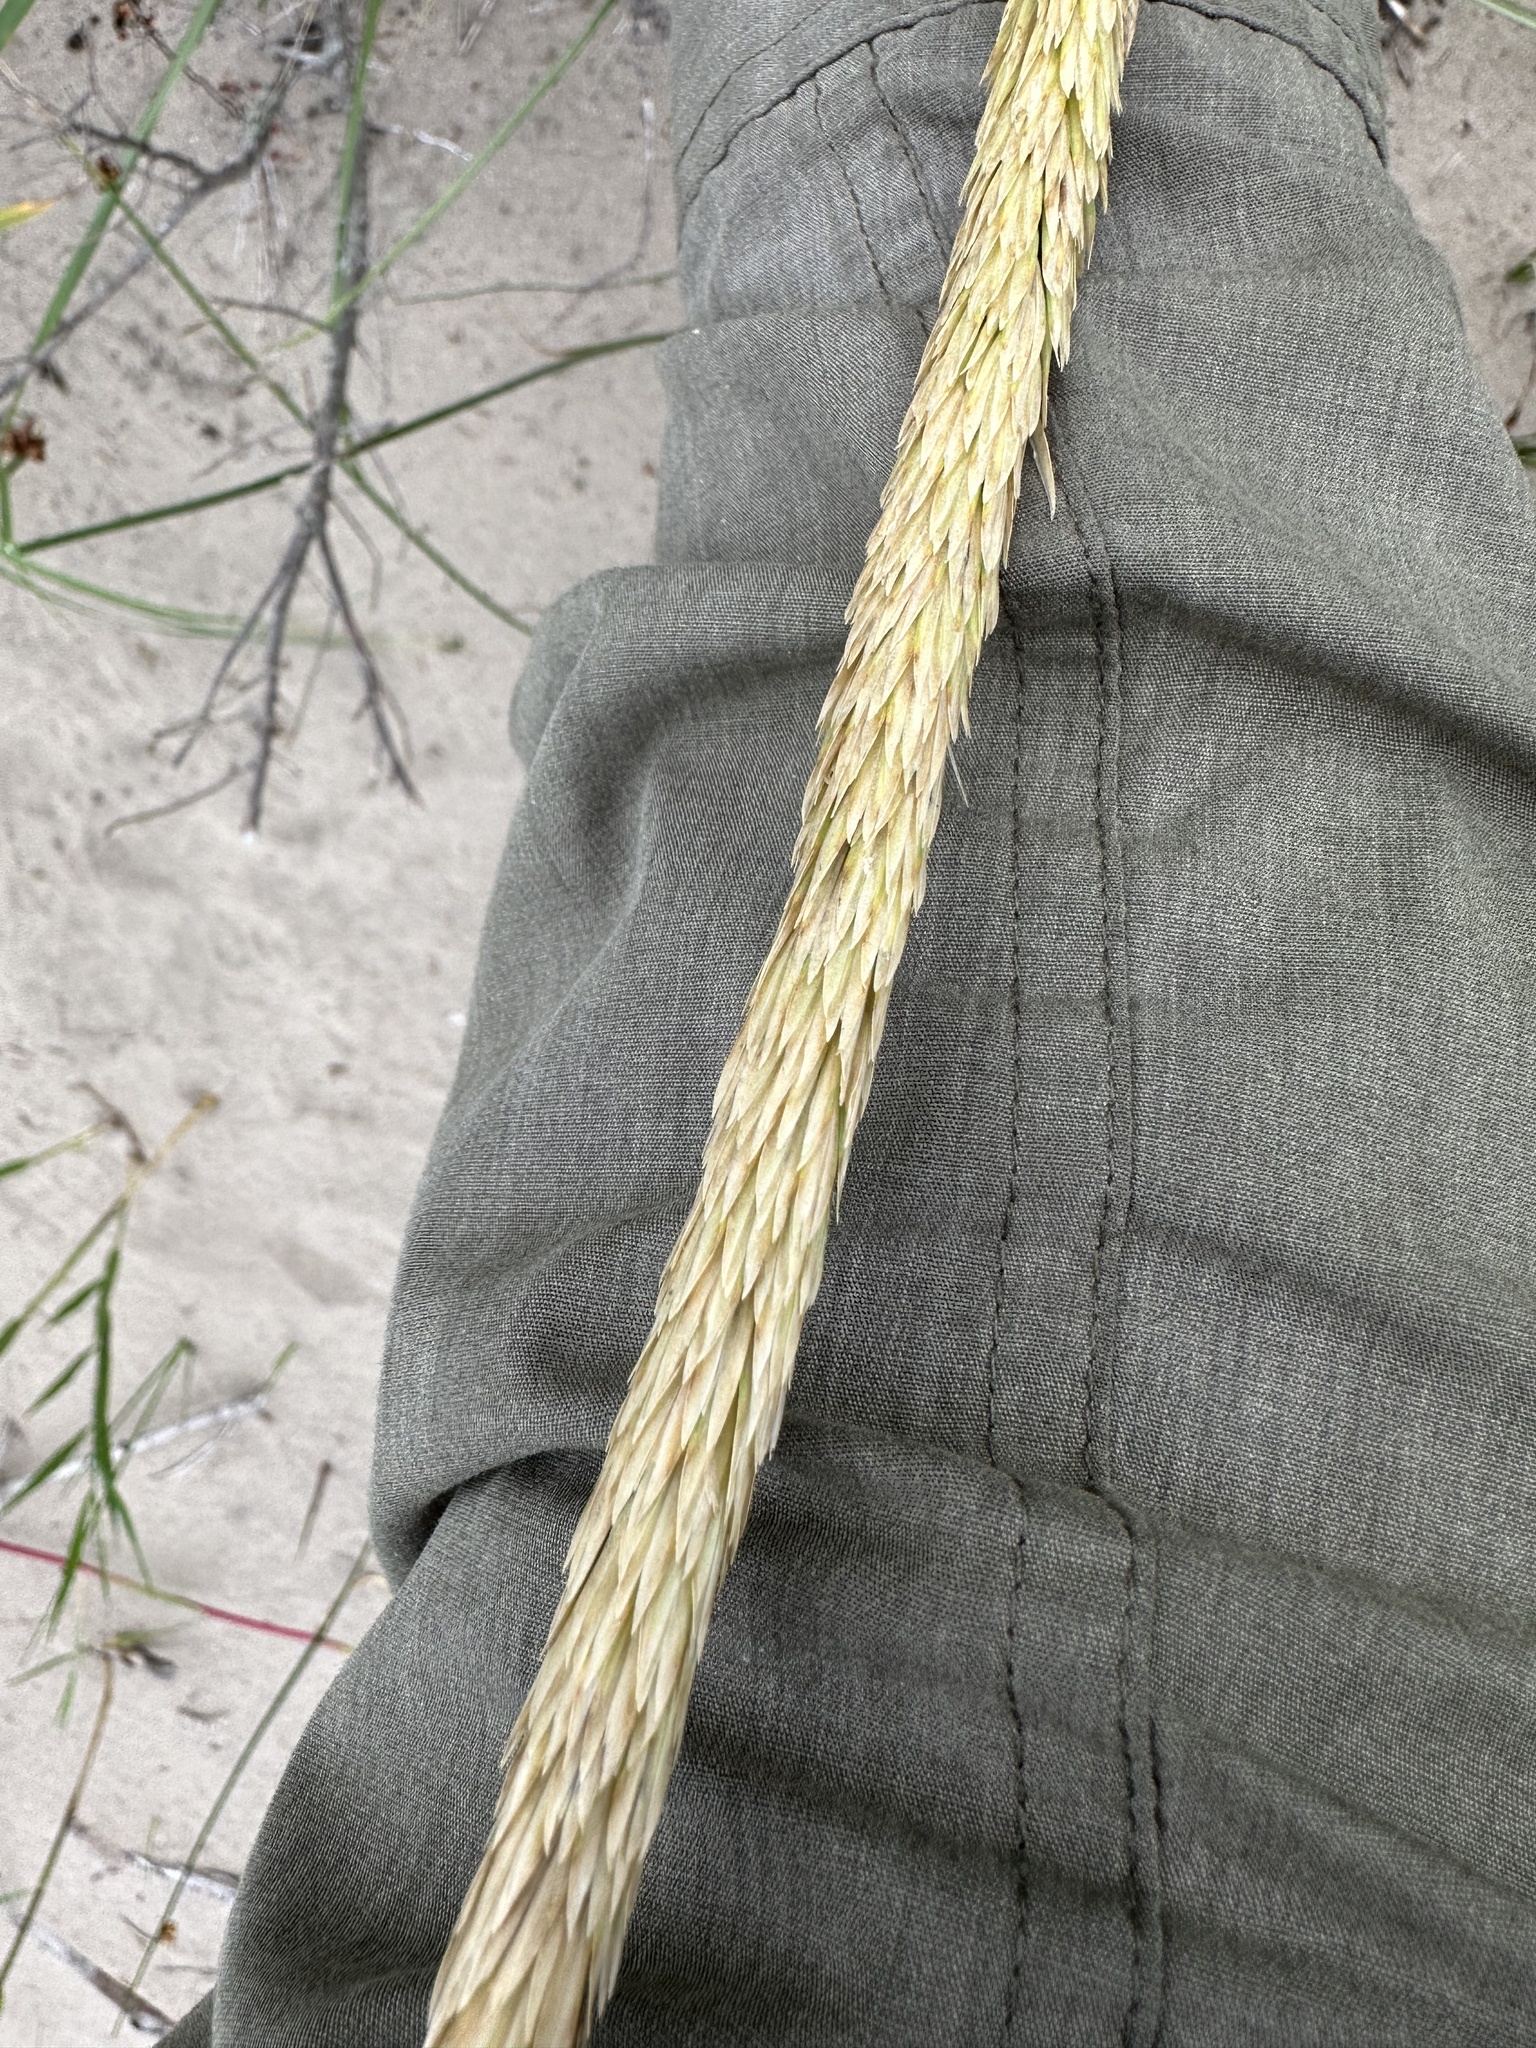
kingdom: Plantae
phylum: Tracheophyta
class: Liliopsida
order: Poales
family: Poaceae
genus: Calamagrostis
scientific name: Calamagrostis breviligulata
